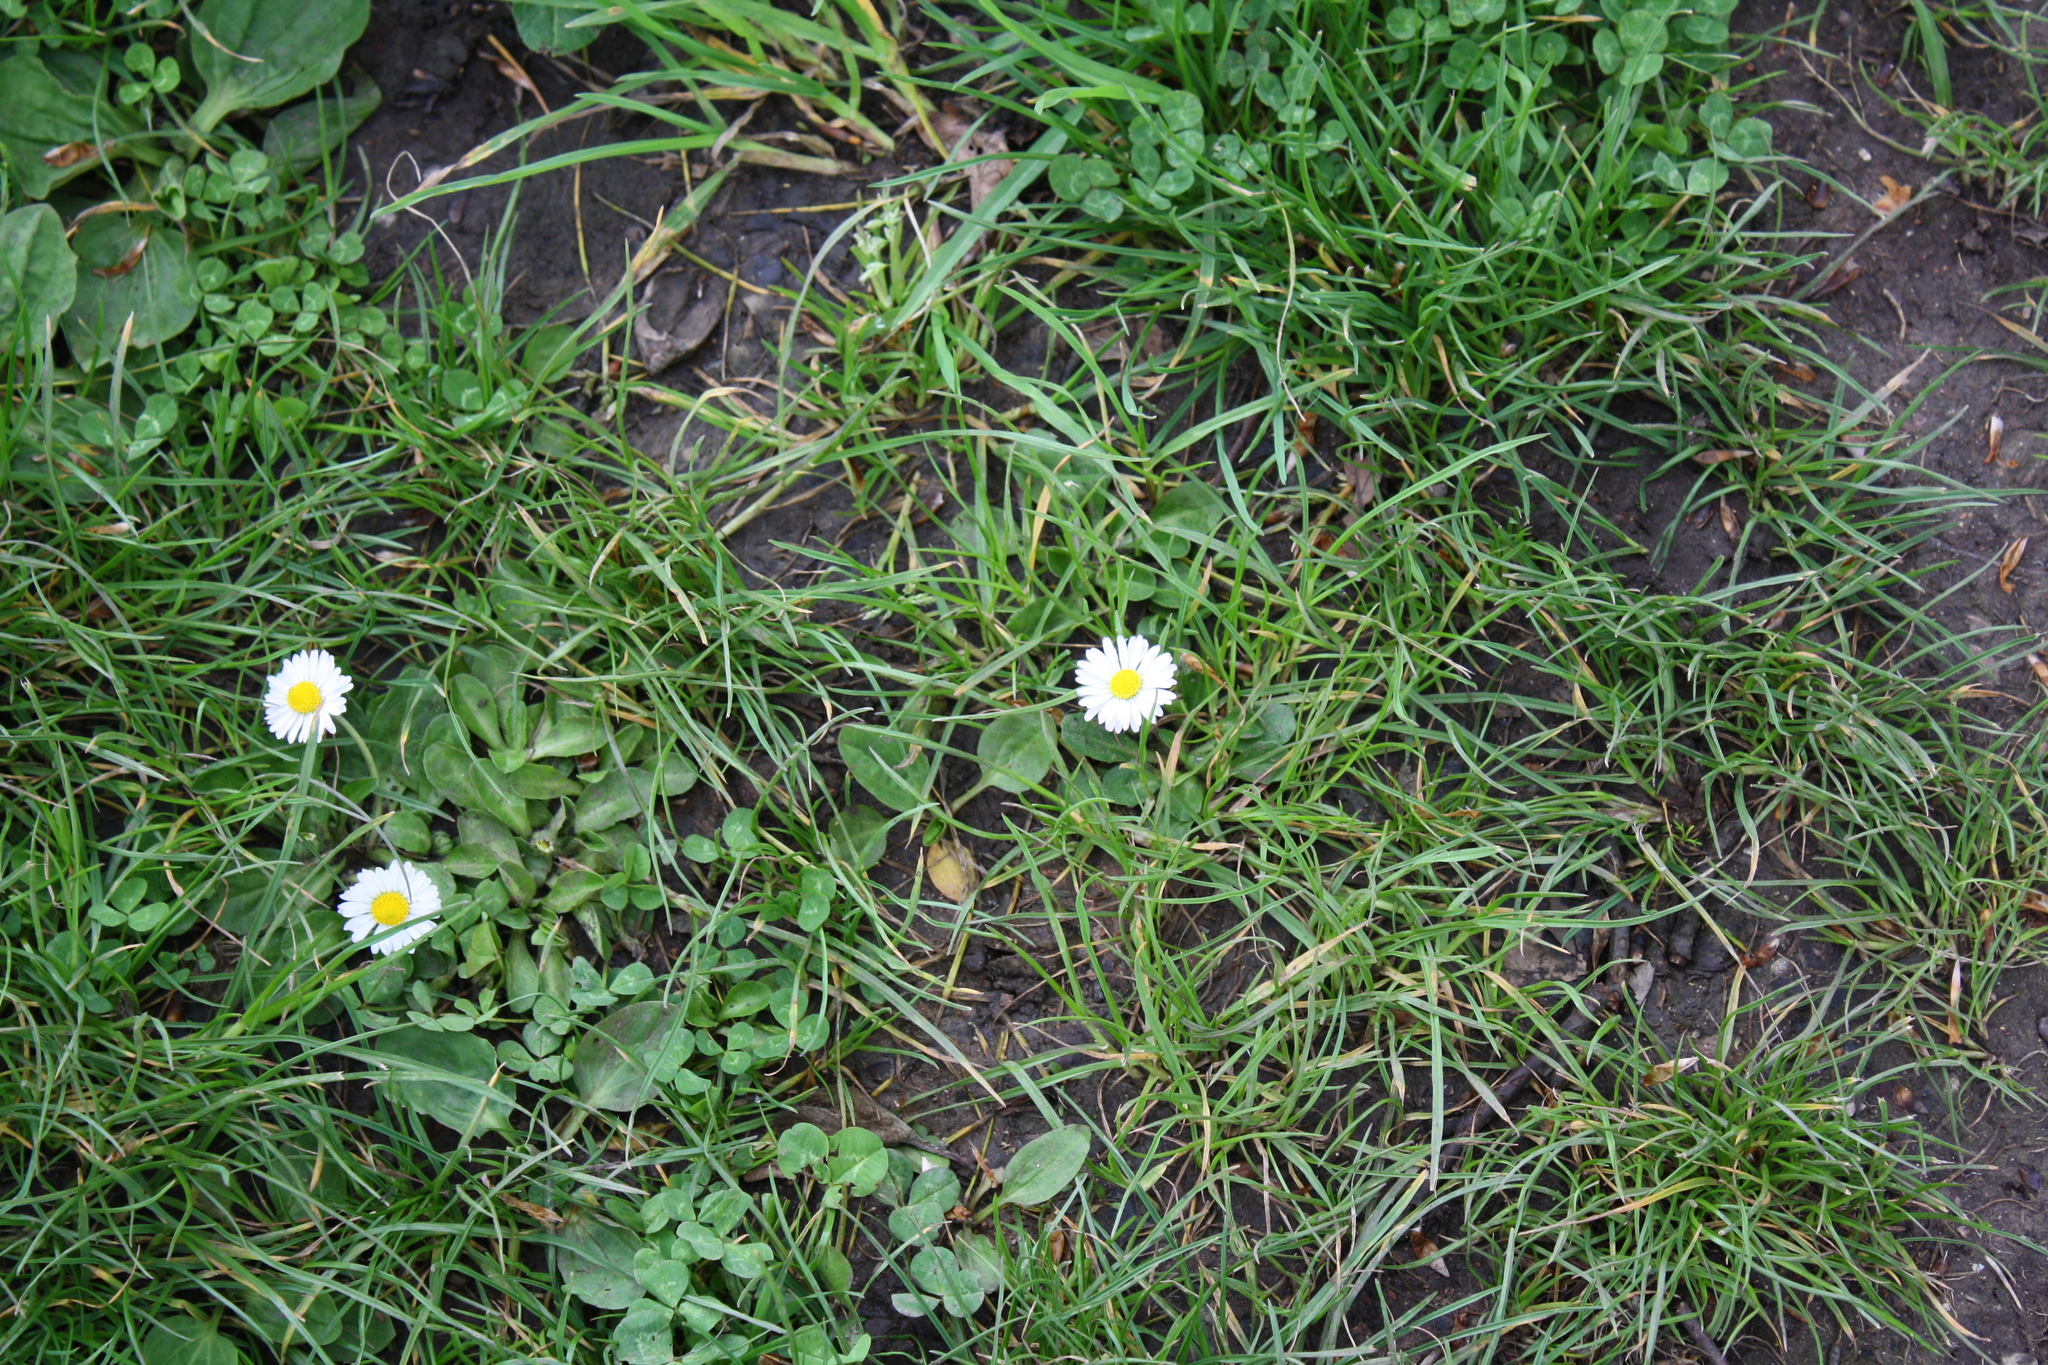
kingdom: Plantae
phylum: Tracheophyta
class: Magnoliopsida
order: Asterales
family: Asteraceae
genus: Bellis
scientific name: Bellis perennis
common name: Lawndaisy
